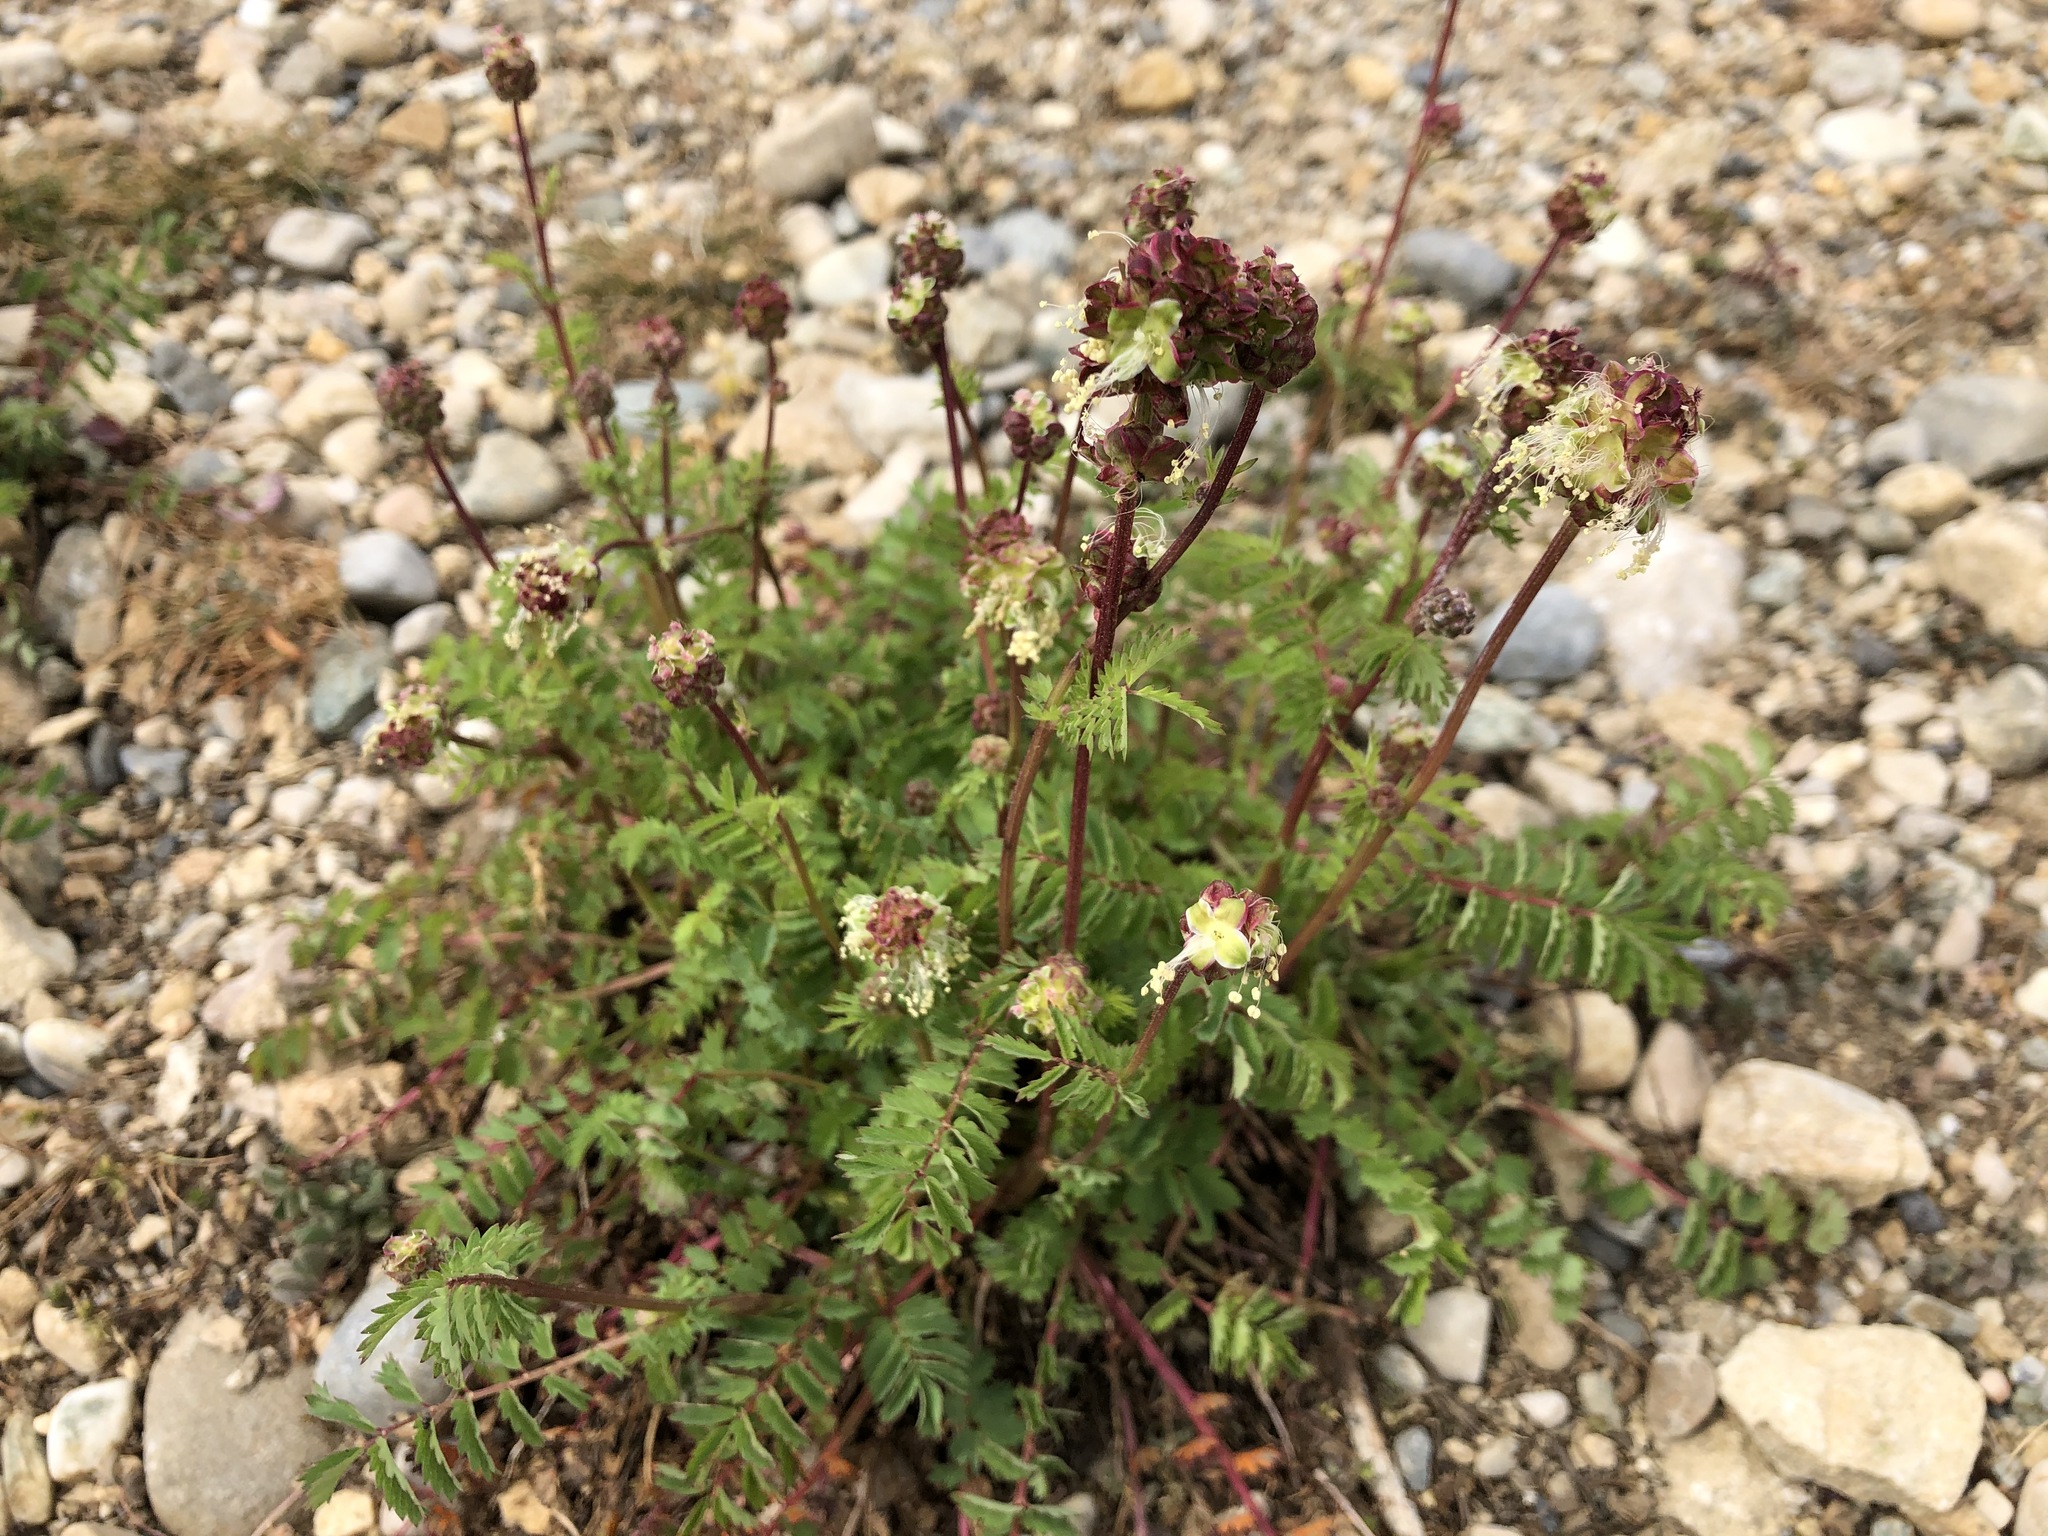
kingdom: Plantae
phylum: Tracheophyta
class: Magnoliopsida
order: Rosales
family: Rosaceae
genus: Poterium
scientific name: Poterium sanguisorba
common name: Salad burnet
